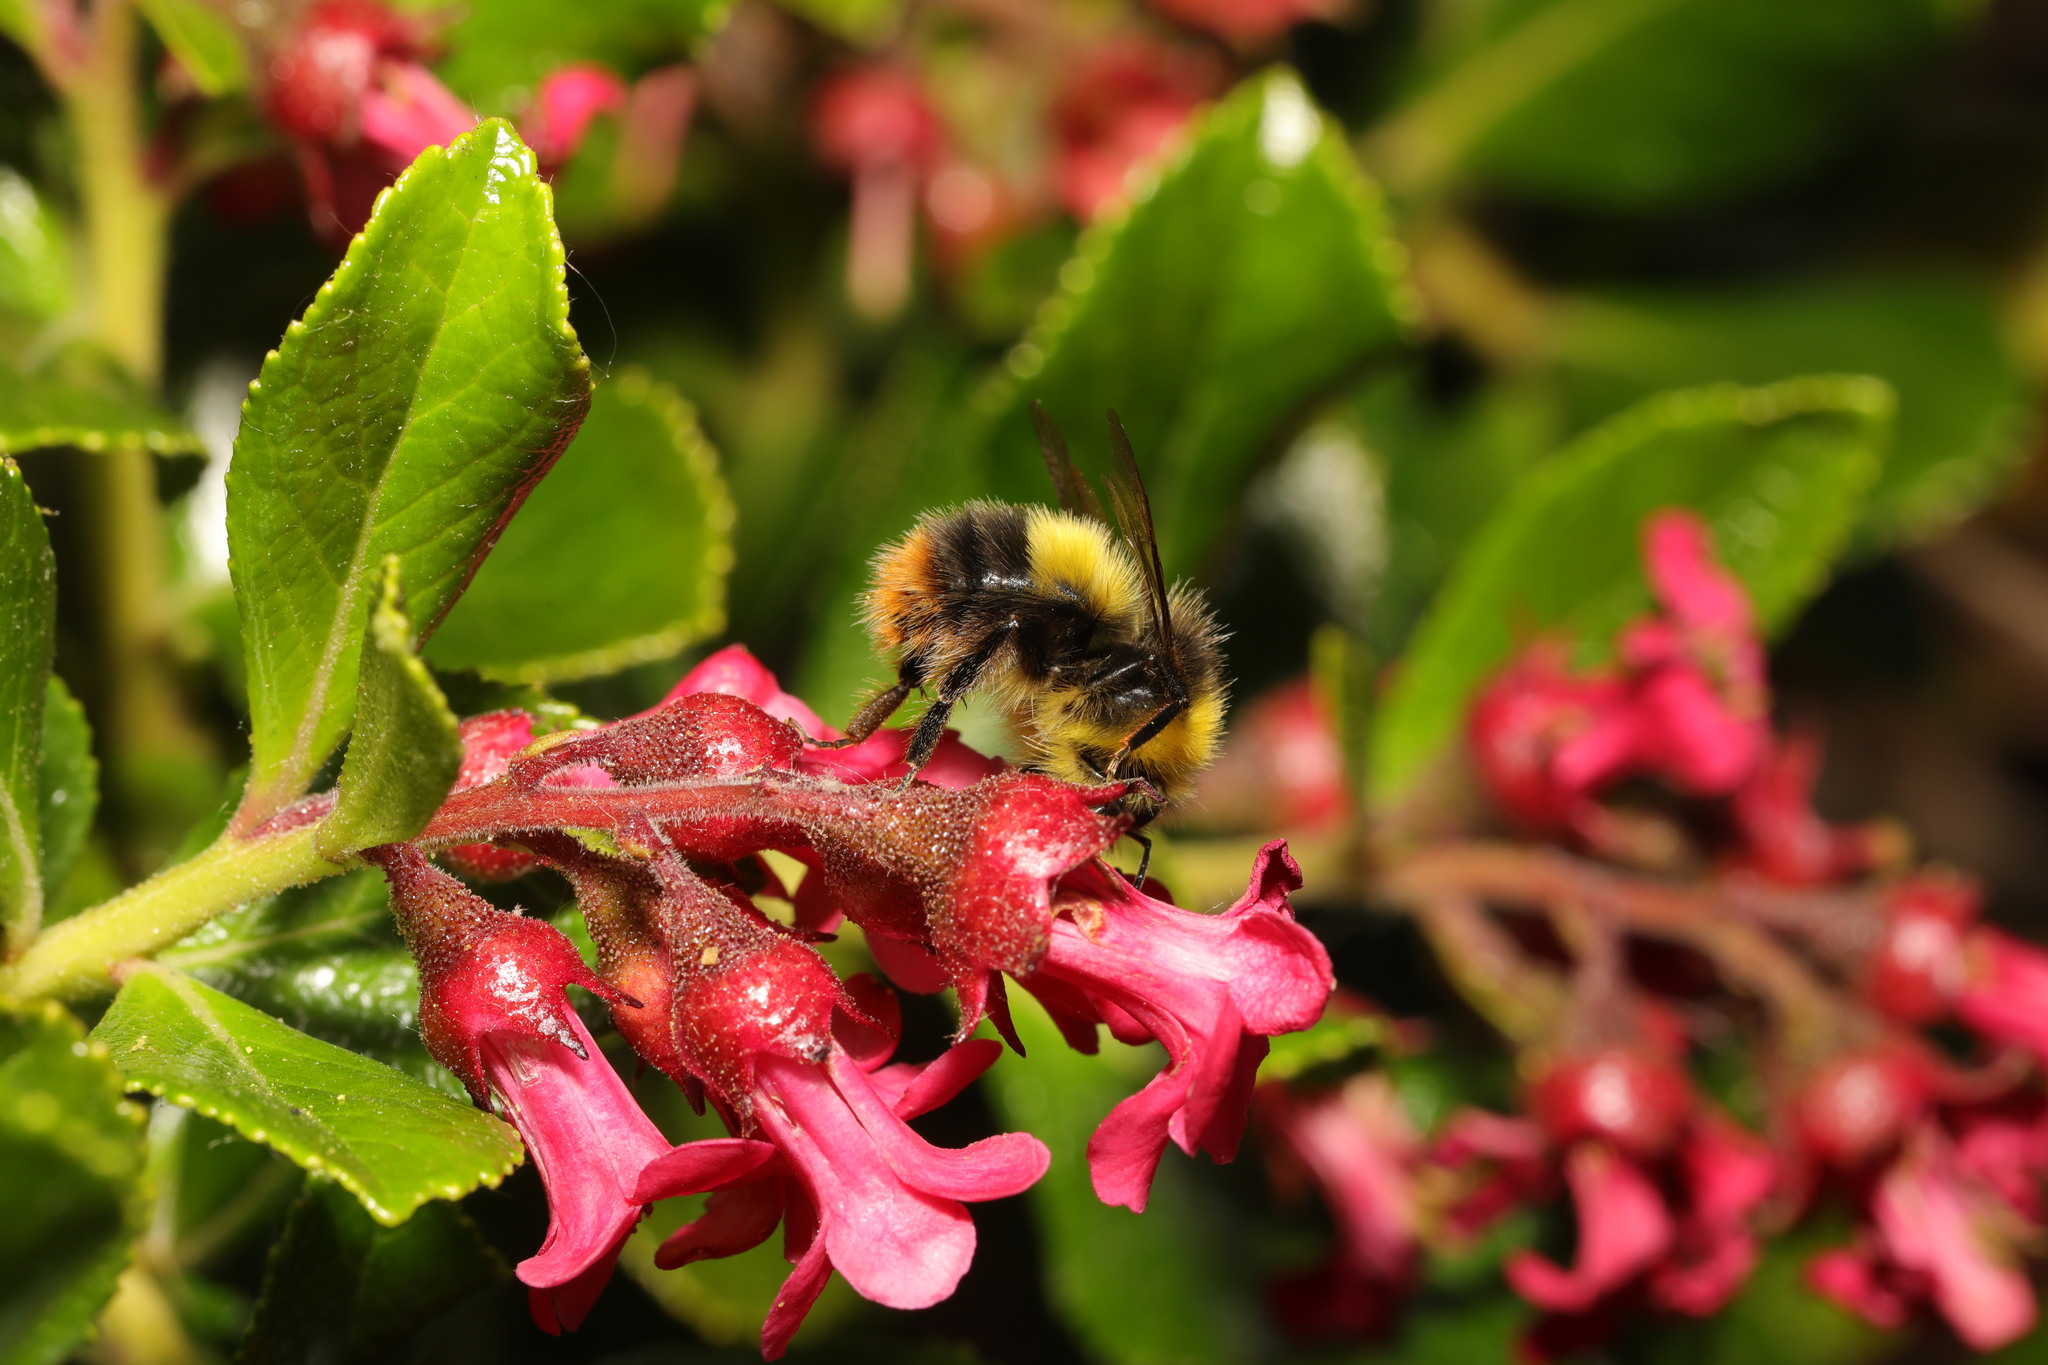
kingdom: Animalia
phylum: Arthropoda
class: Insecta
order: Hymenoptera
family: Apidae
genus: Bombus
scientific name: Bombus pratorum
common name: Early humble-bee
